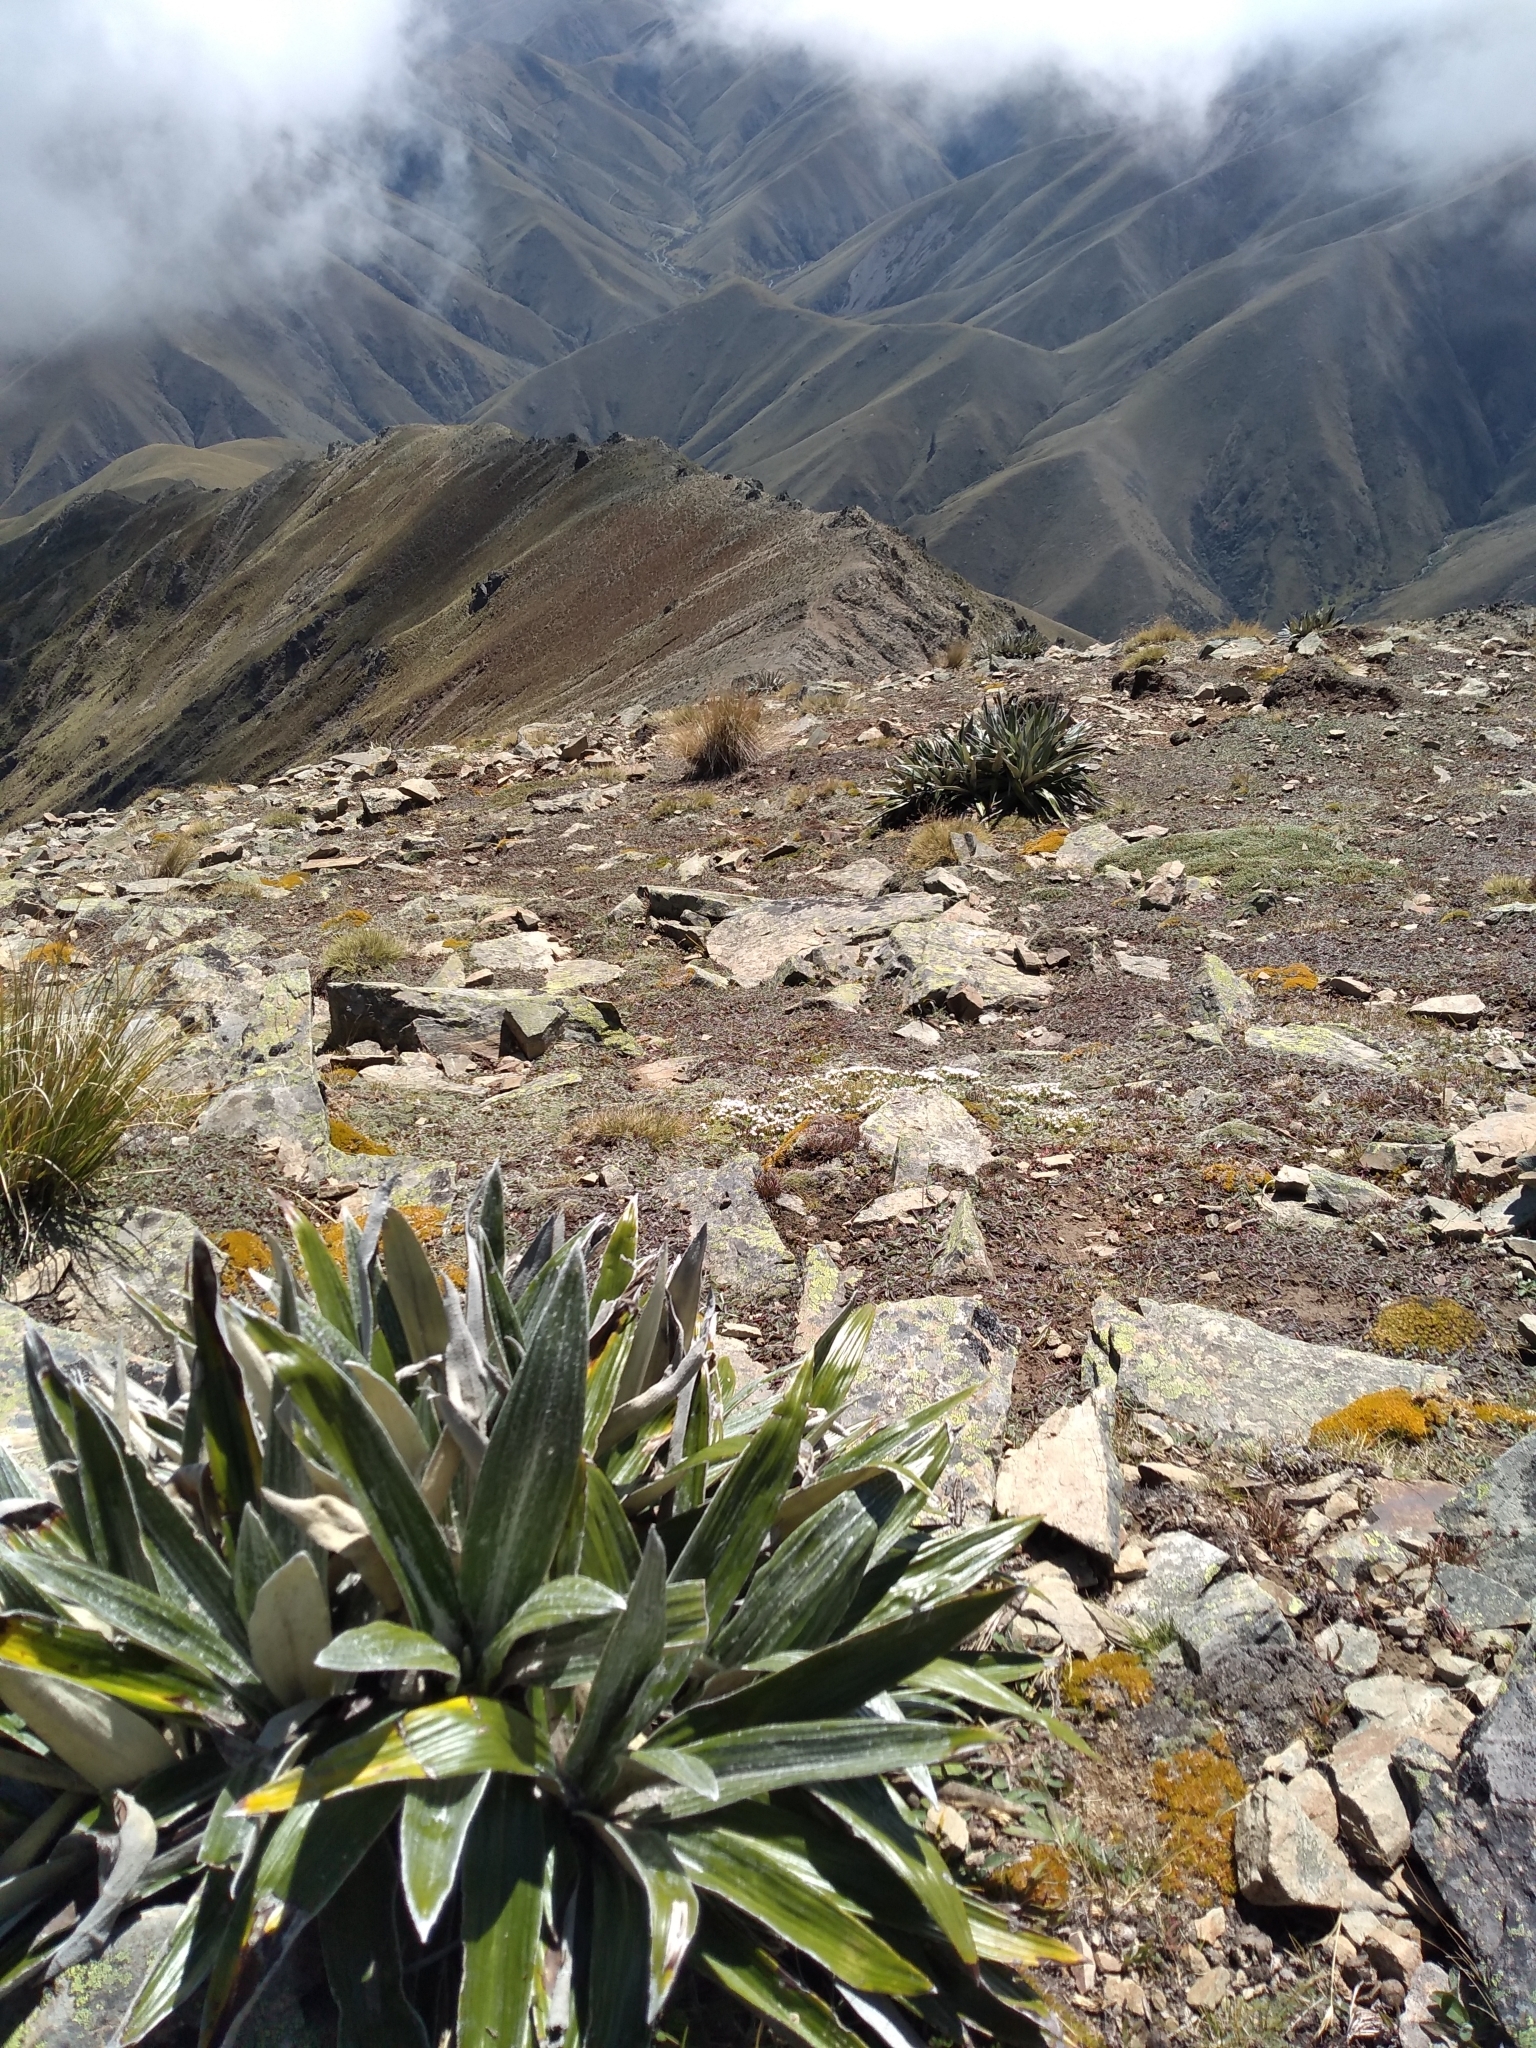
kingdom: Plantae
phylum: Tracheophyta
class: Magnoliopsida
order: Asterales
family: Asteraceae
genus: Celmisia
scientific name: Celmisia semicordata
